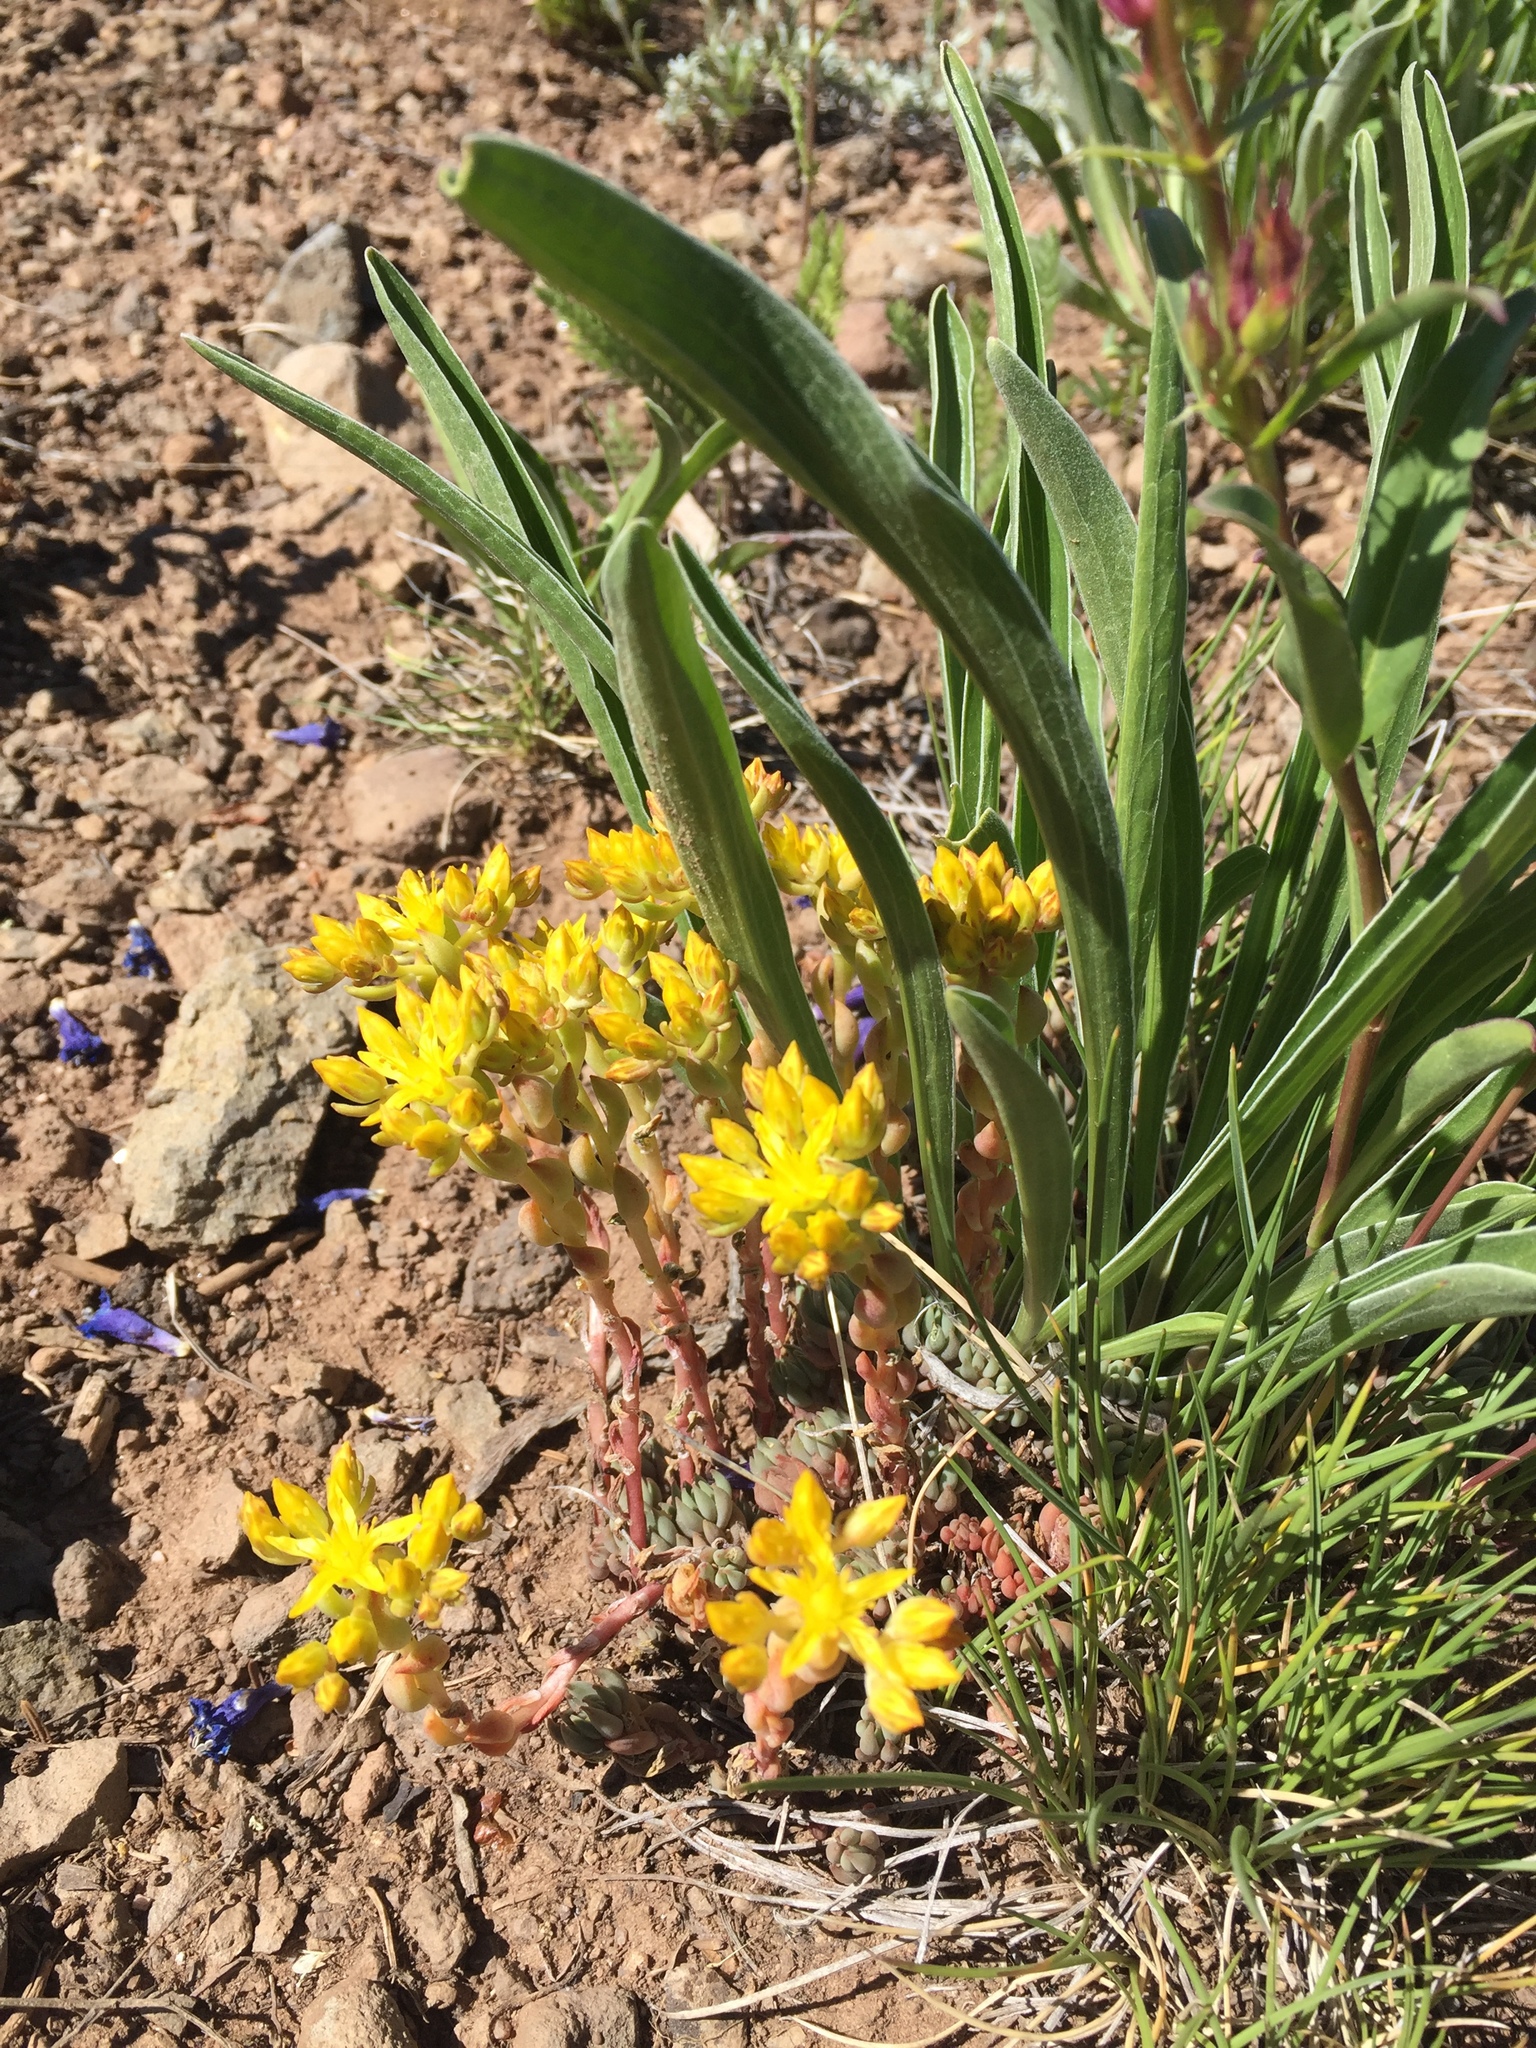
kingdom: Plantae
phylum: Tracheophyta
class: Magnoliopsida
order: Saxifragales
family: Crassulaceae
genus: Sedum
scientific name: Sedum lanceolatum
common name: Common stonecrop
